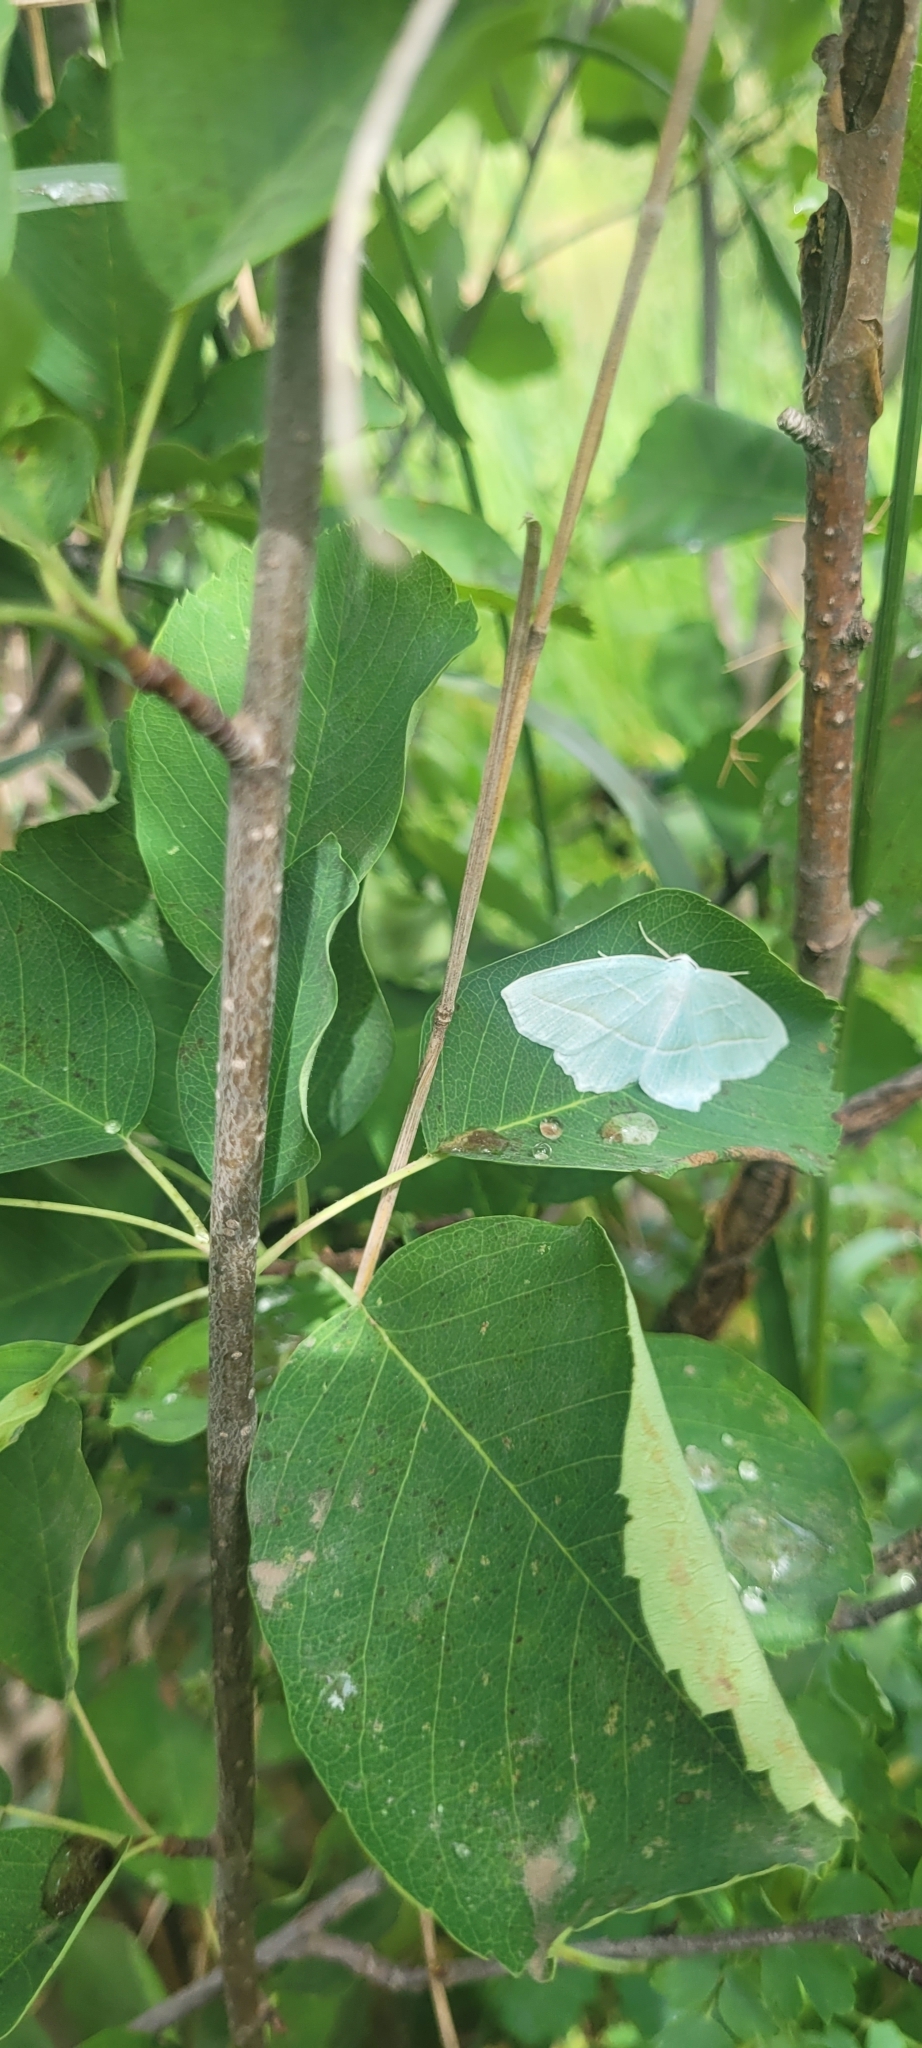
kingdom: Animalia
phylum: Arthropoda
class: Insecta
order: Lepidoptera
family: Geometridae
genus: Campaea
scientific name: Campaea perlata
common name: Fringed looper
